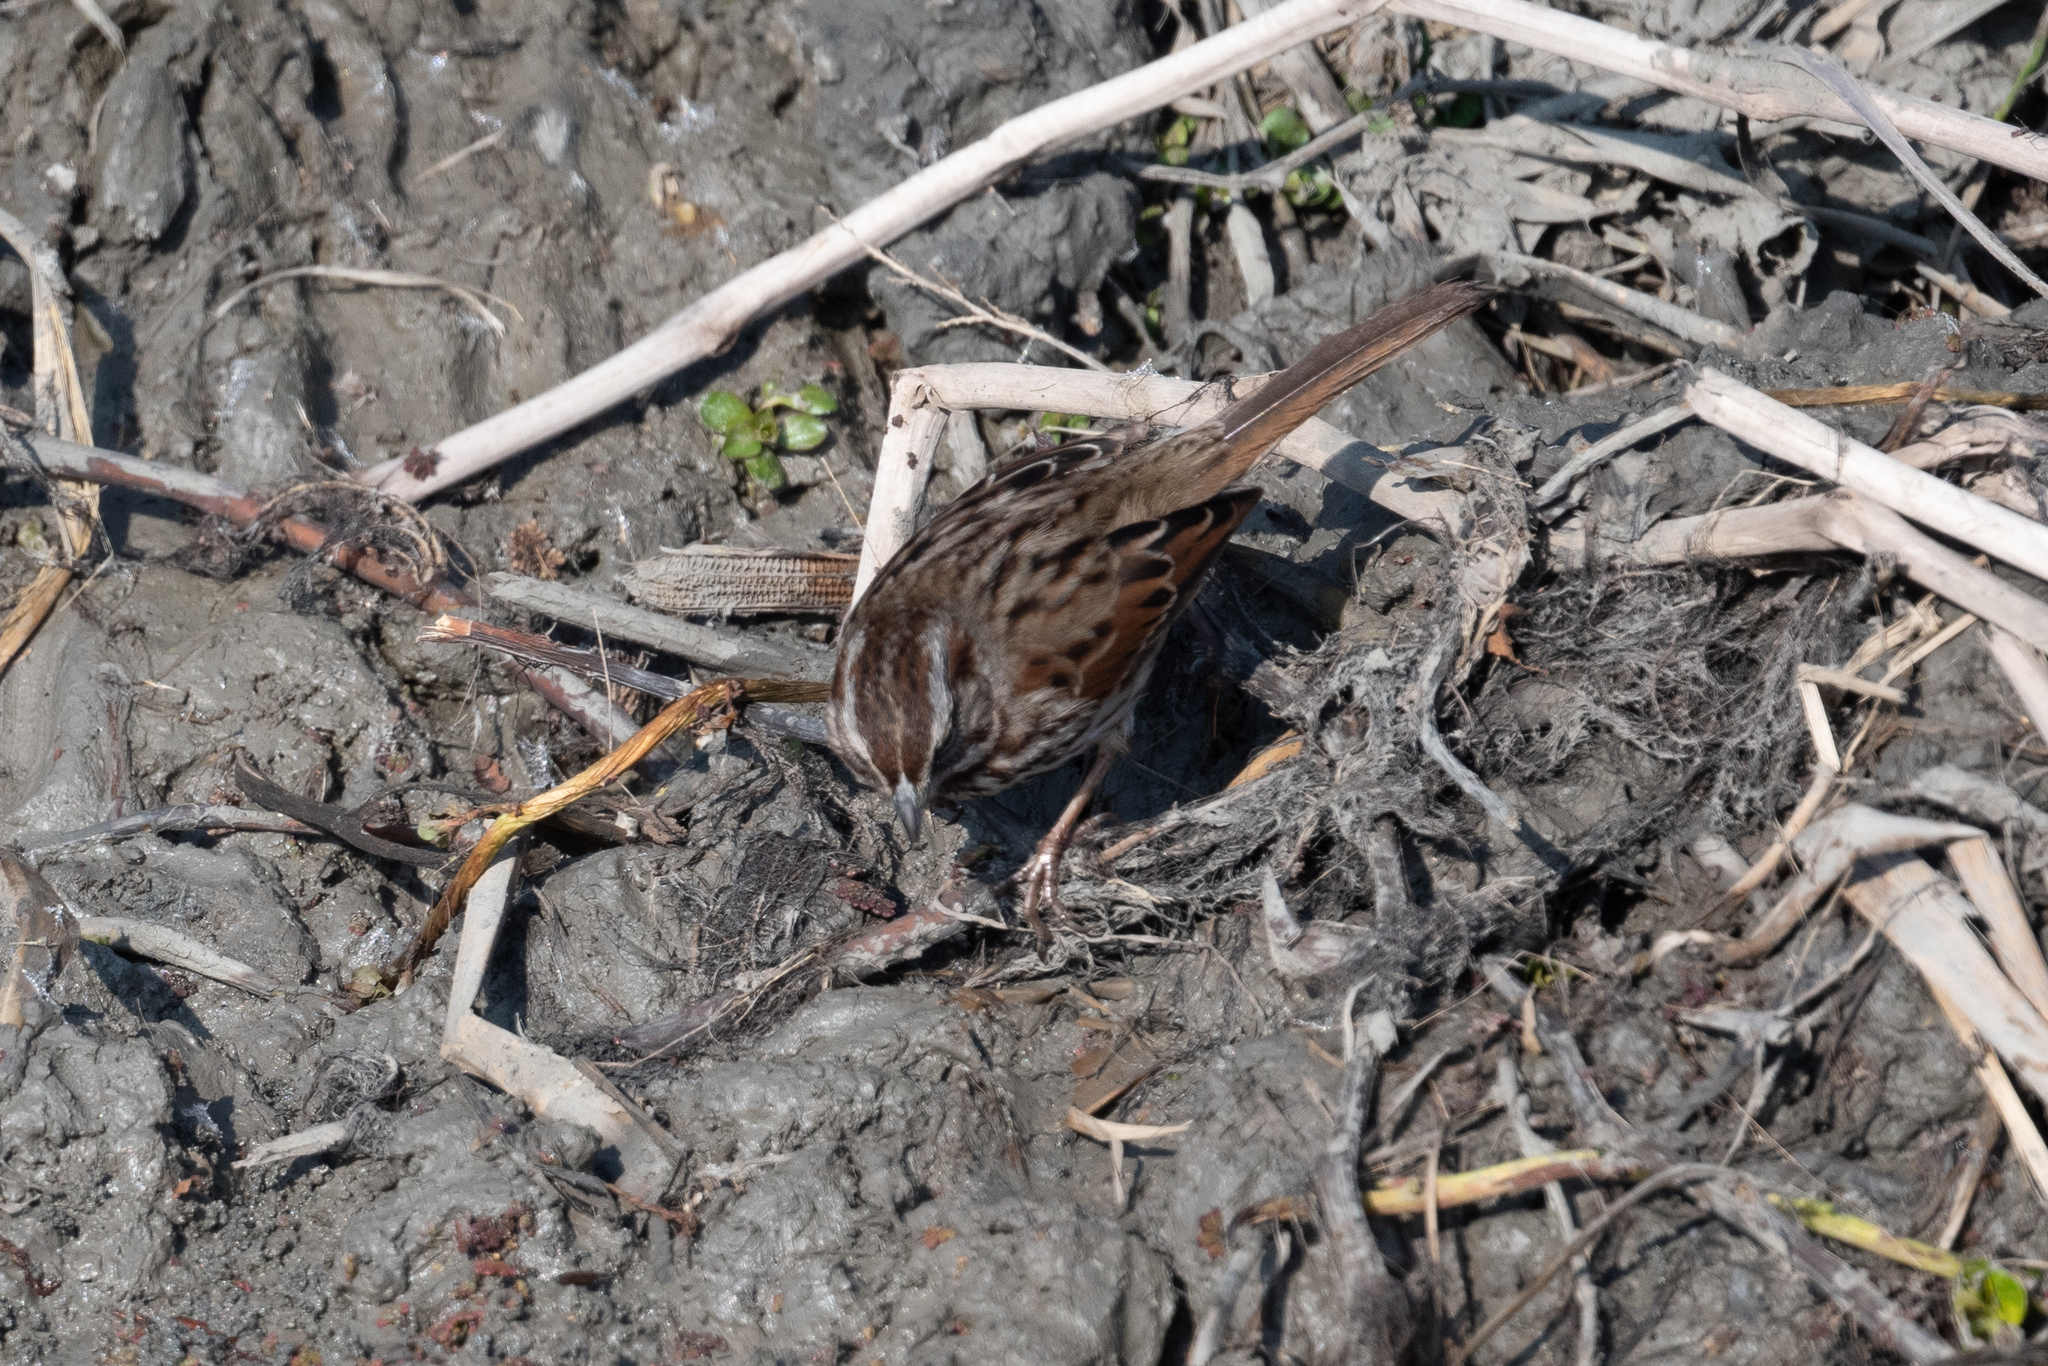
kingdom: Animalia
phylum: Chordata
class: Aves
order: Passeriformes
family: Passerellidae
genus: Melospiza
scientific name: Melospiza melodia
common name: Song sparrow
